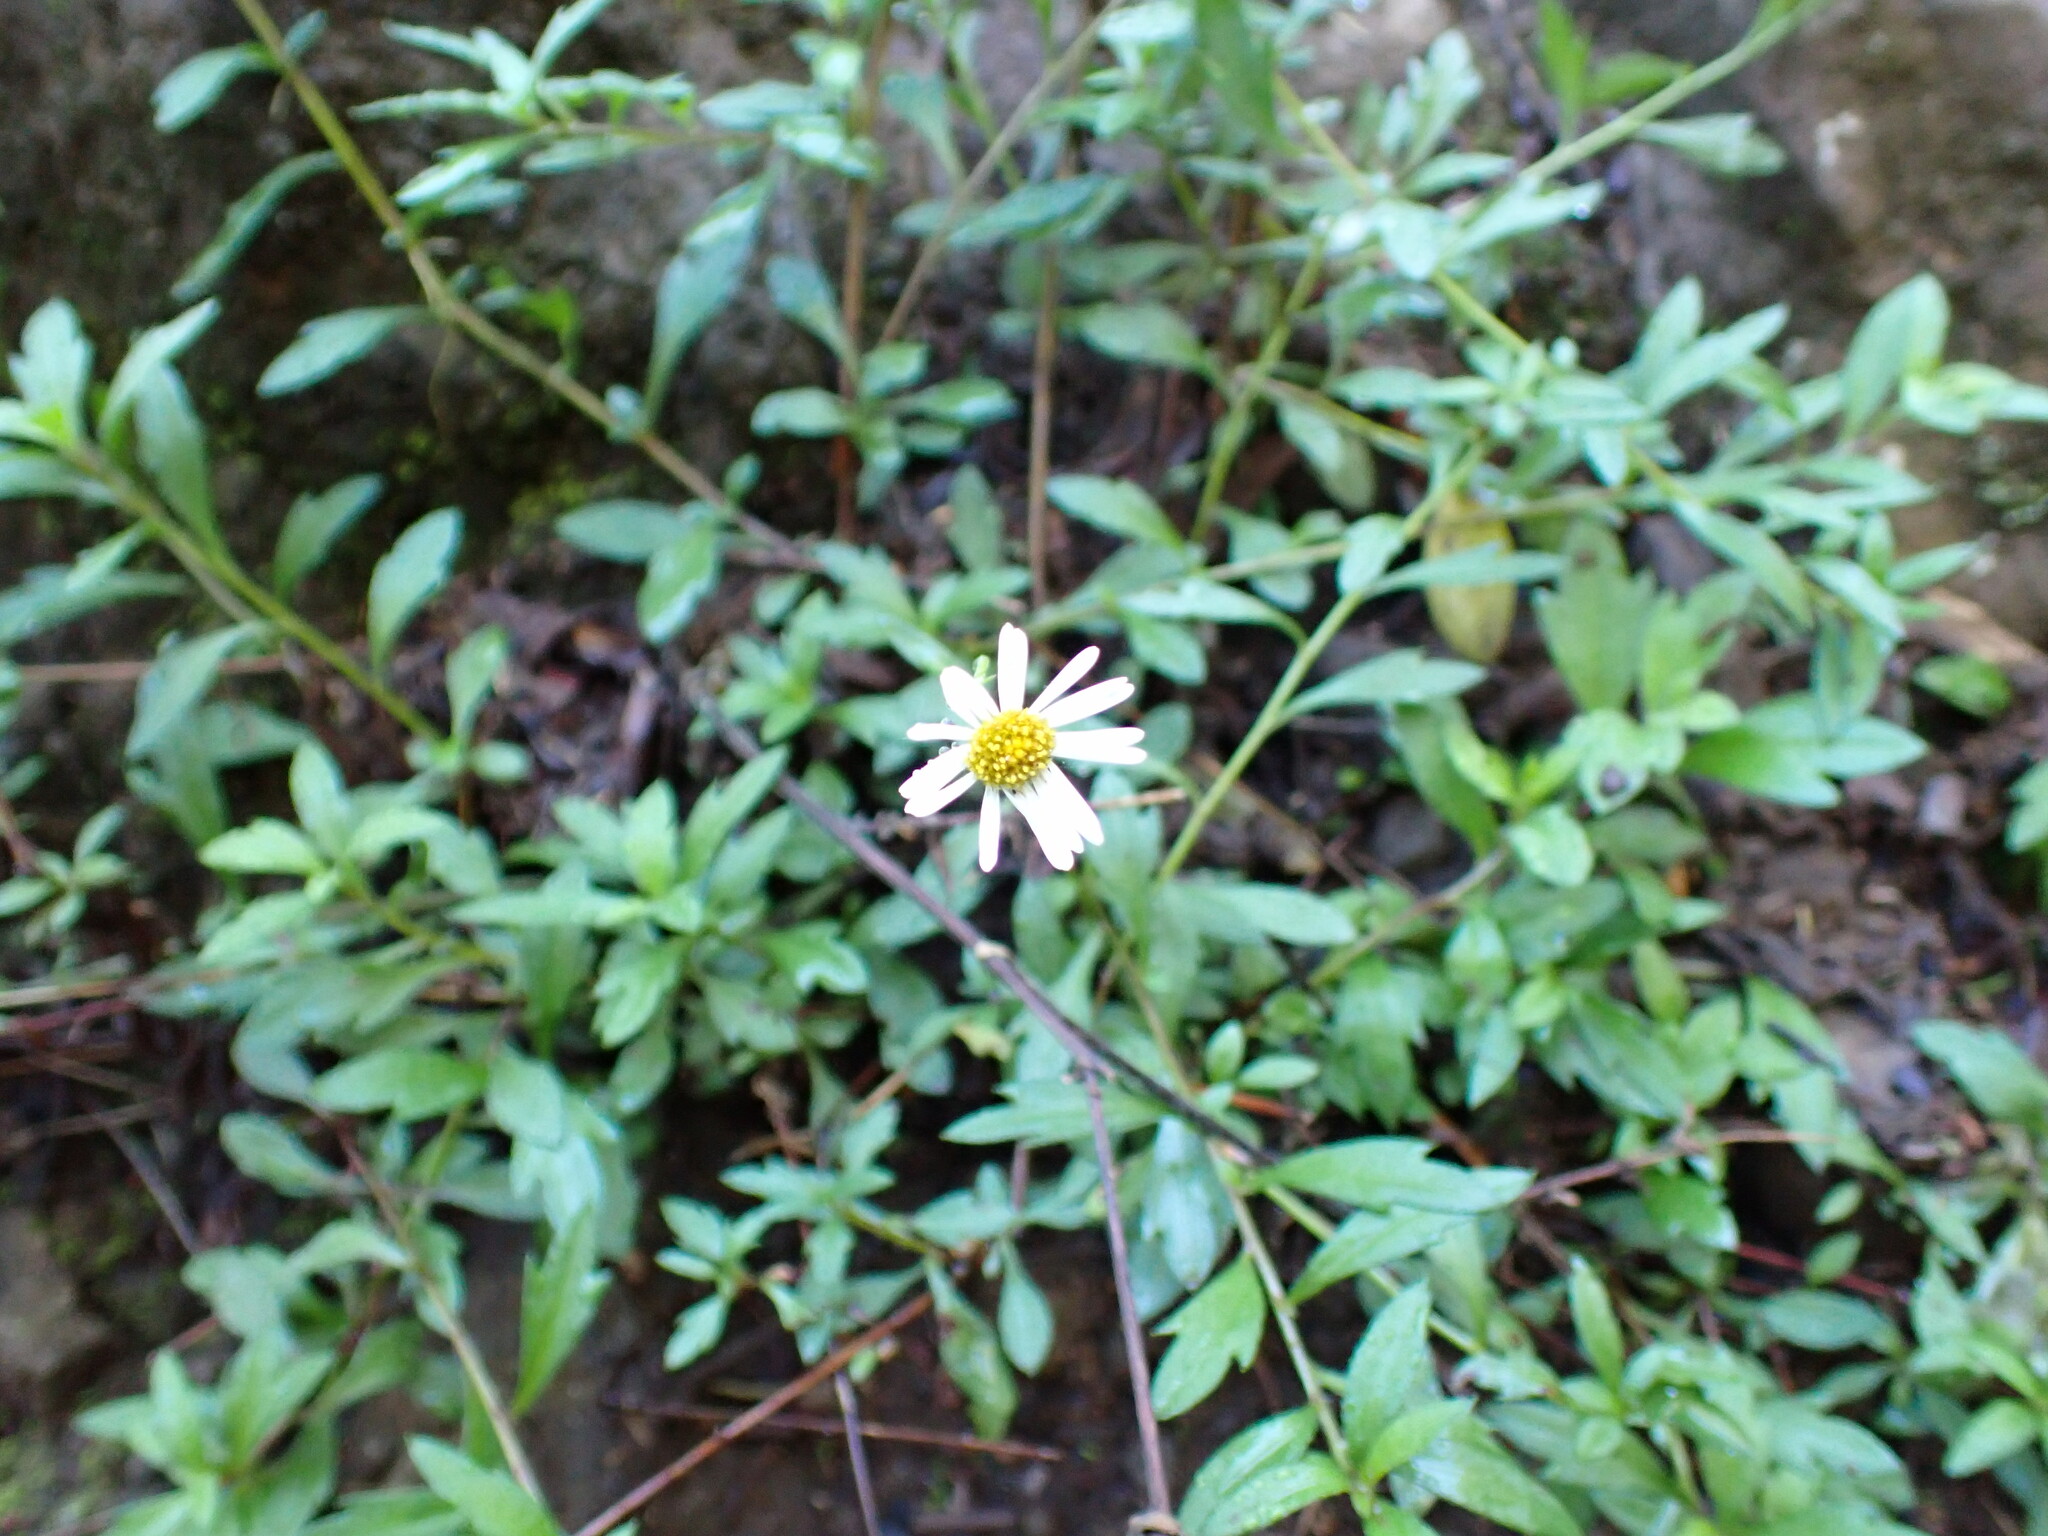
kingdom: Plantae
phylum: Tracheophyta
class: Magnoliopsida
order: Asterales
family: Asteraceae
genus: Erigeron
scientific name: Erigeron karvinskianus
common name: Mexican fleabane
